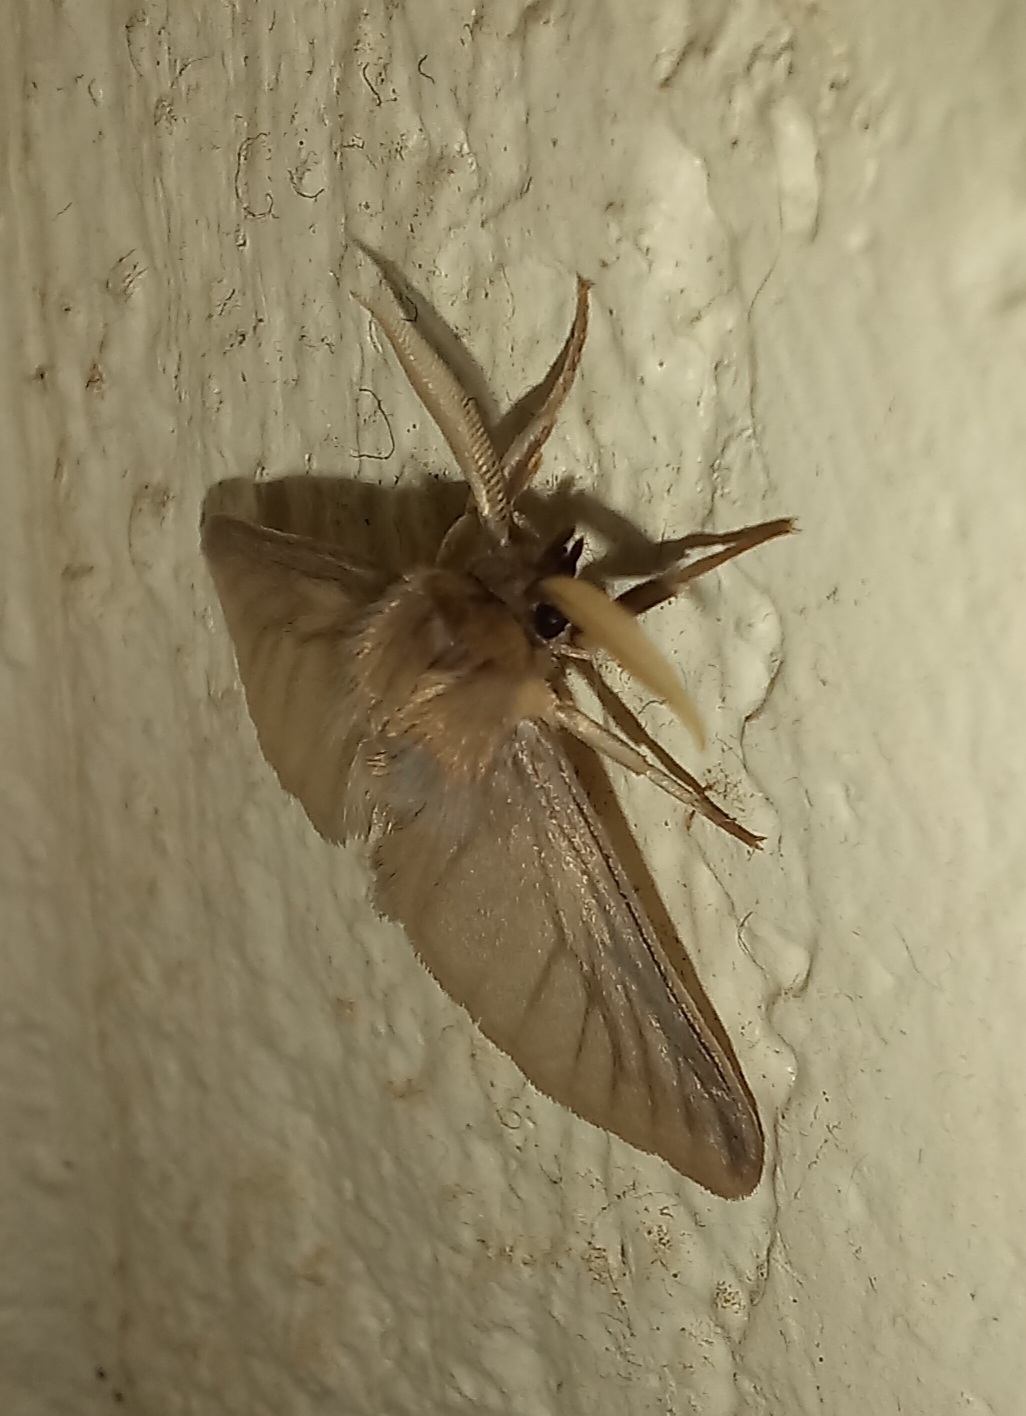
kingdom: Animalia
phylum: Arthropoda
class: Insecta
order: Lepidoptera
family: Erebidae
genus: Apisa
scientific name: Apisa canescens
